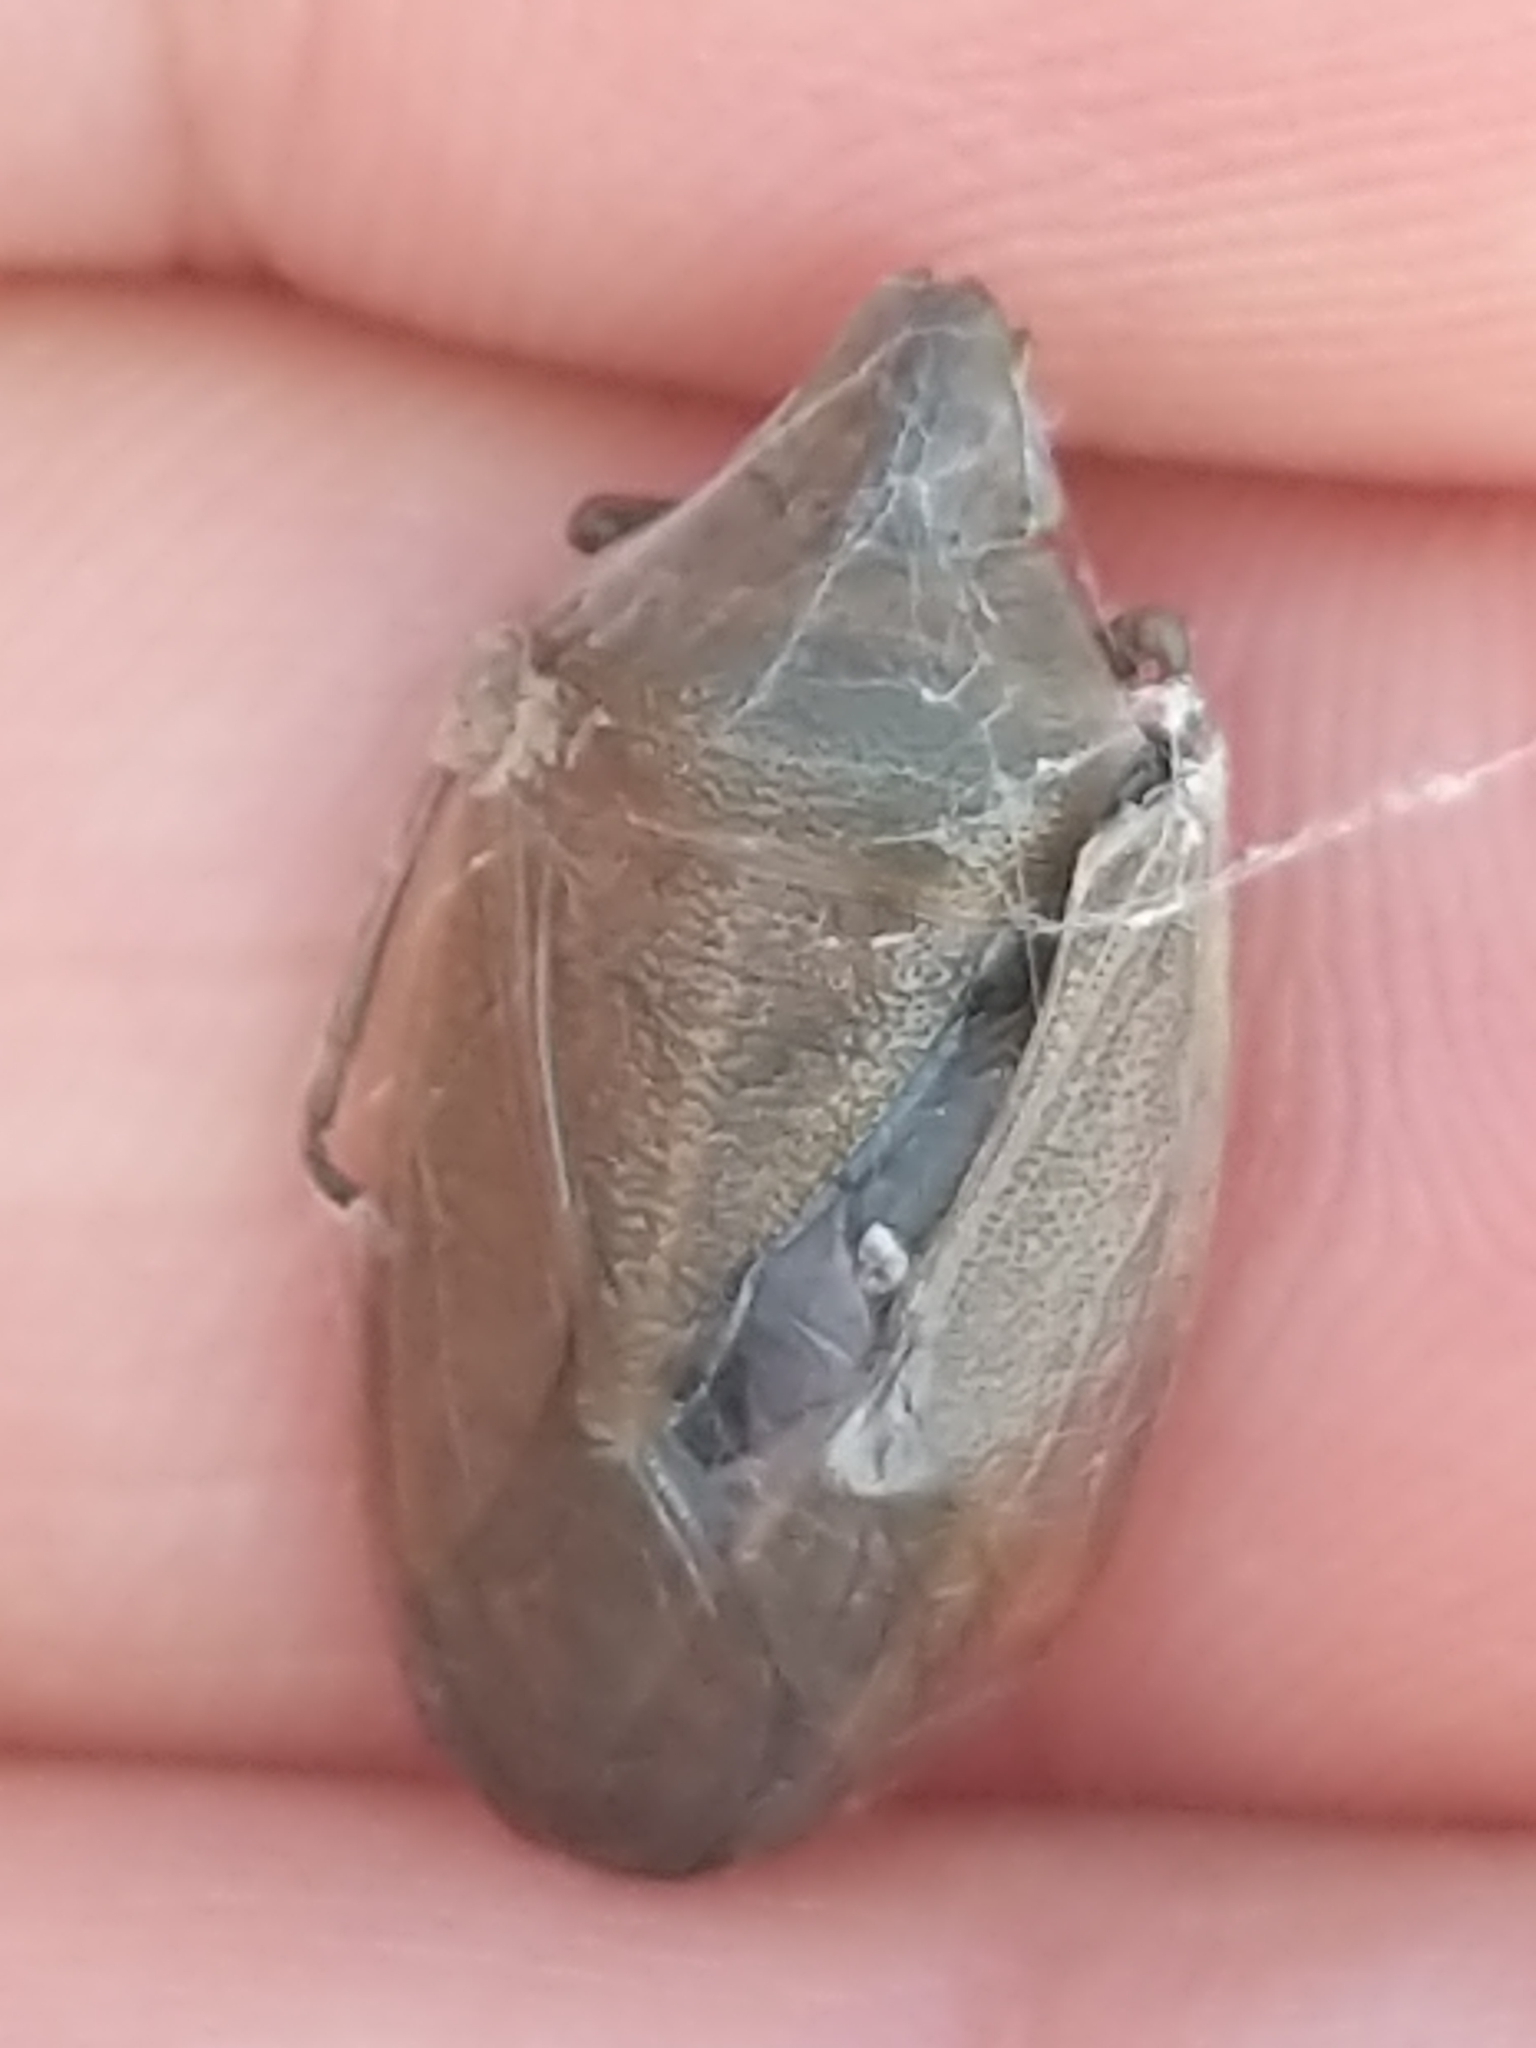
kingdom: Animalia
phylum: Arthropoda
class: Insecta
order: Hemiptera
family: Pentatomidae
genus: Chlorochroa
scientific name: Chlorochroa senilis
